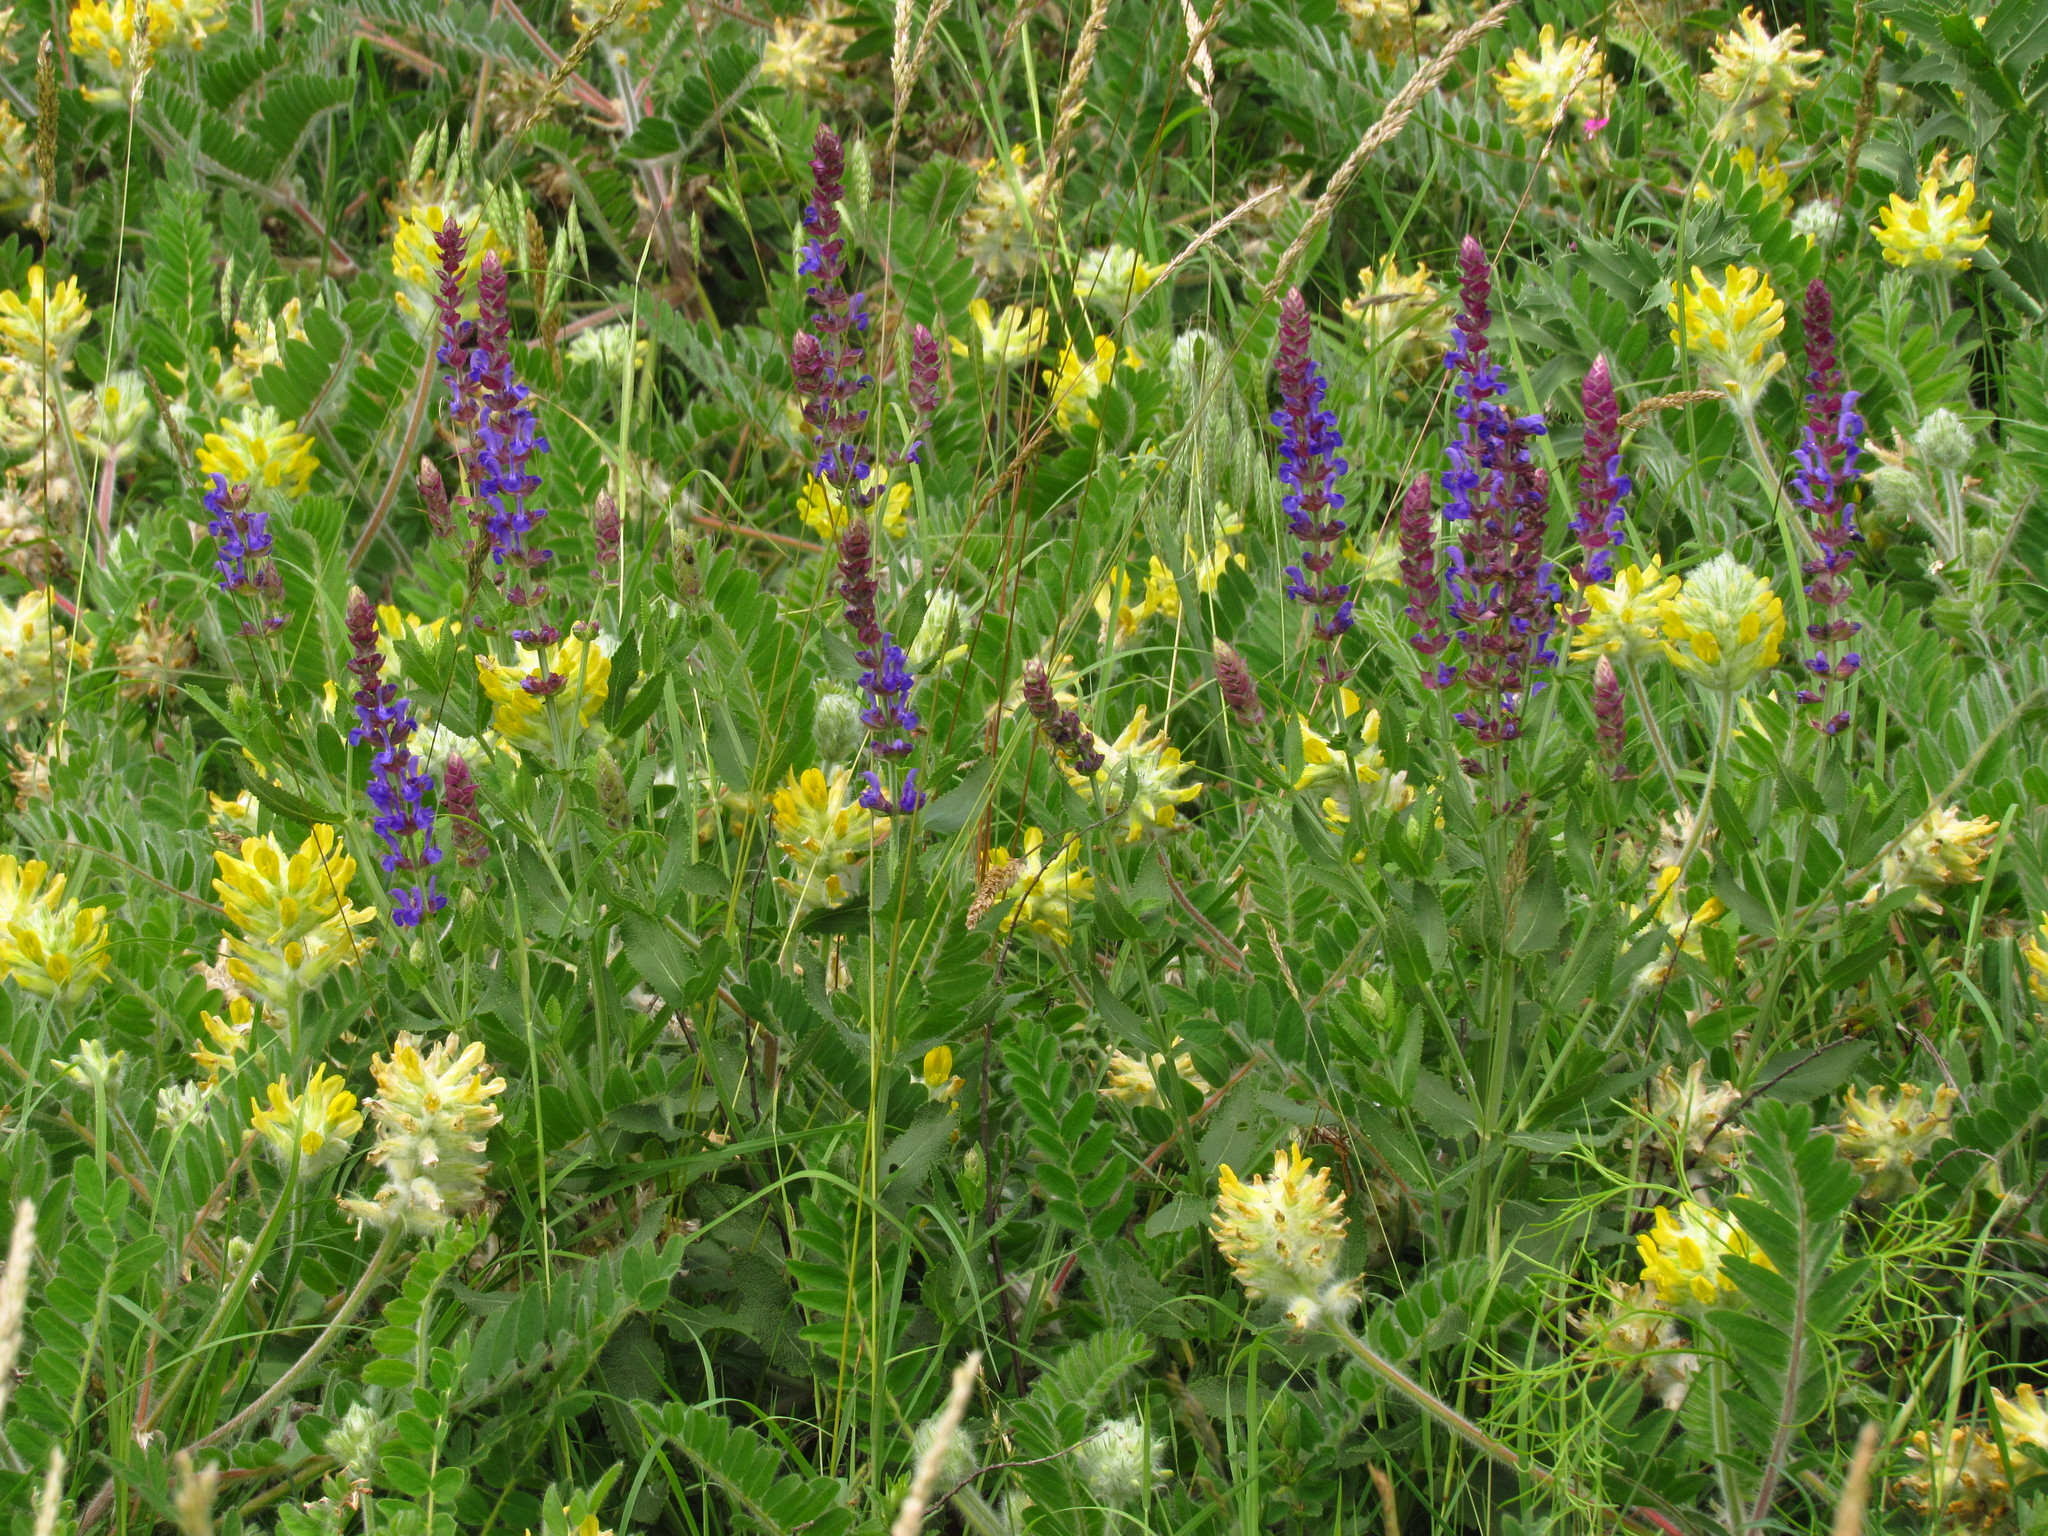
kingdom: Plantae
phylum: Tracheophyta
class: Magnoliopsida
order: Fabales
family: Fabaceae
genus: Astragalus
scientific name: Astragalus dasyanthus
